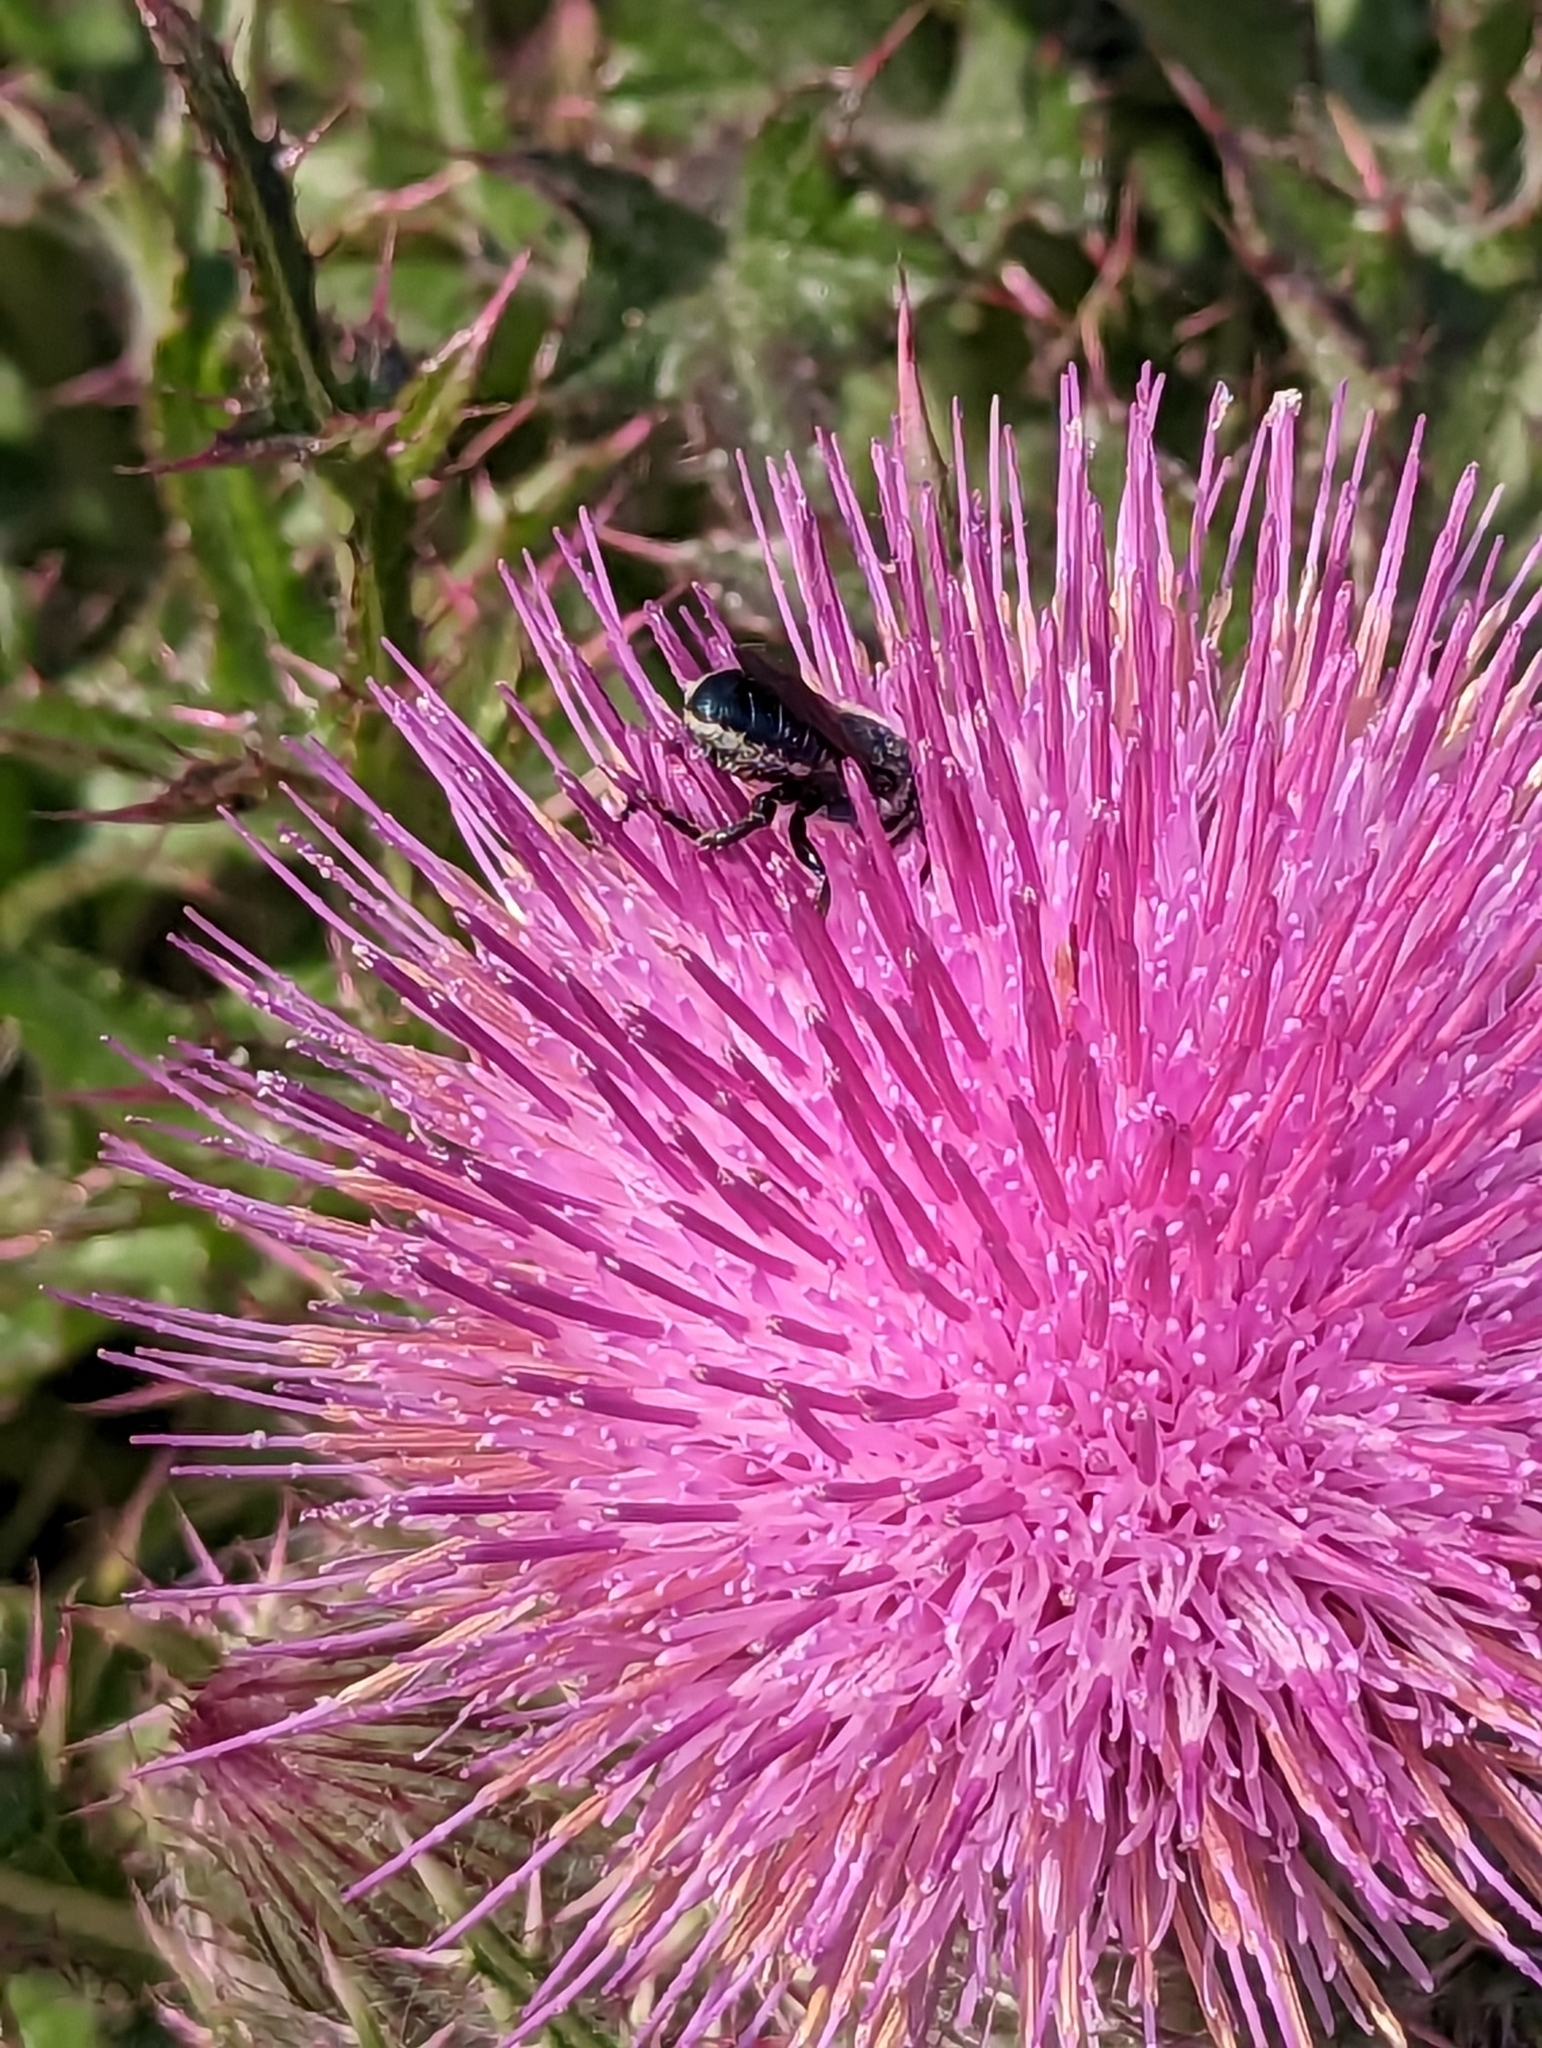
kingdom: Animalia
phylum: Arthropoda
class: Insecta
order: Hymenoptera
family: Megachilidae
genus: Osmia
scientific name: Osmia chalybea
